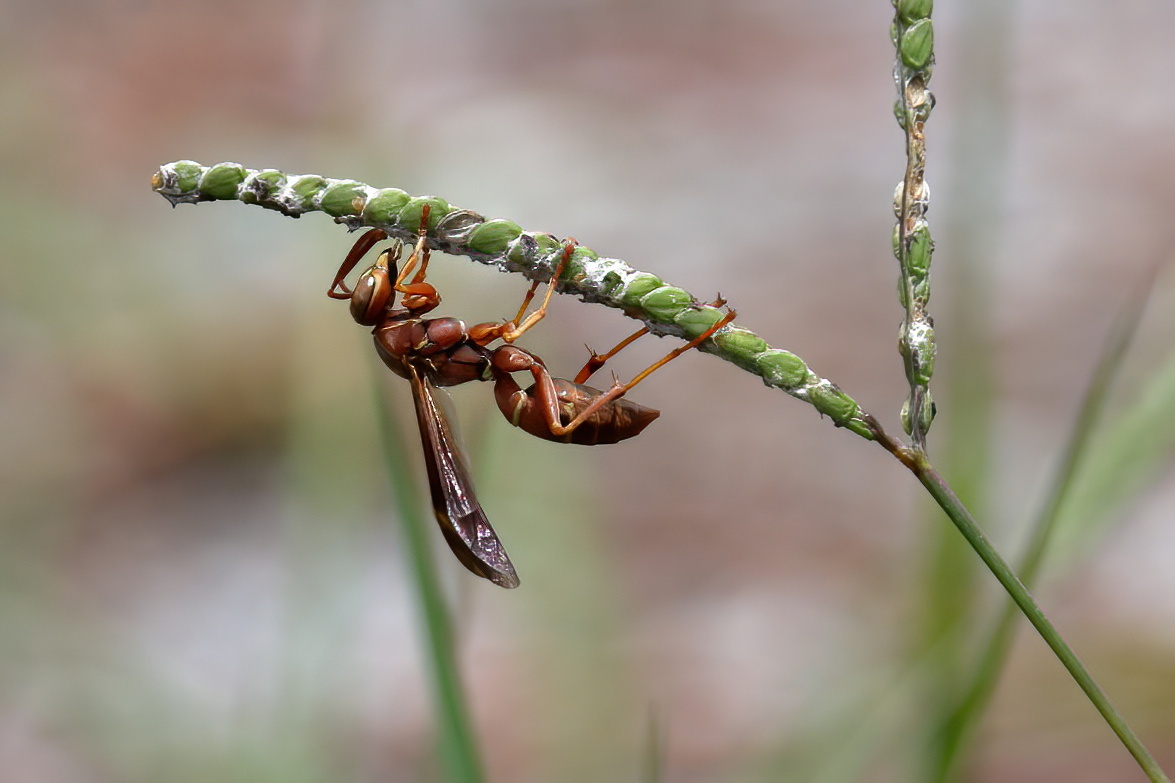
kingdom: Animalia
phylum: Arthropoda
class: Insecta
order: Hymenoptera
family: Eumenidae
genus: Polistes
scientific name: Polistes bellicosus
